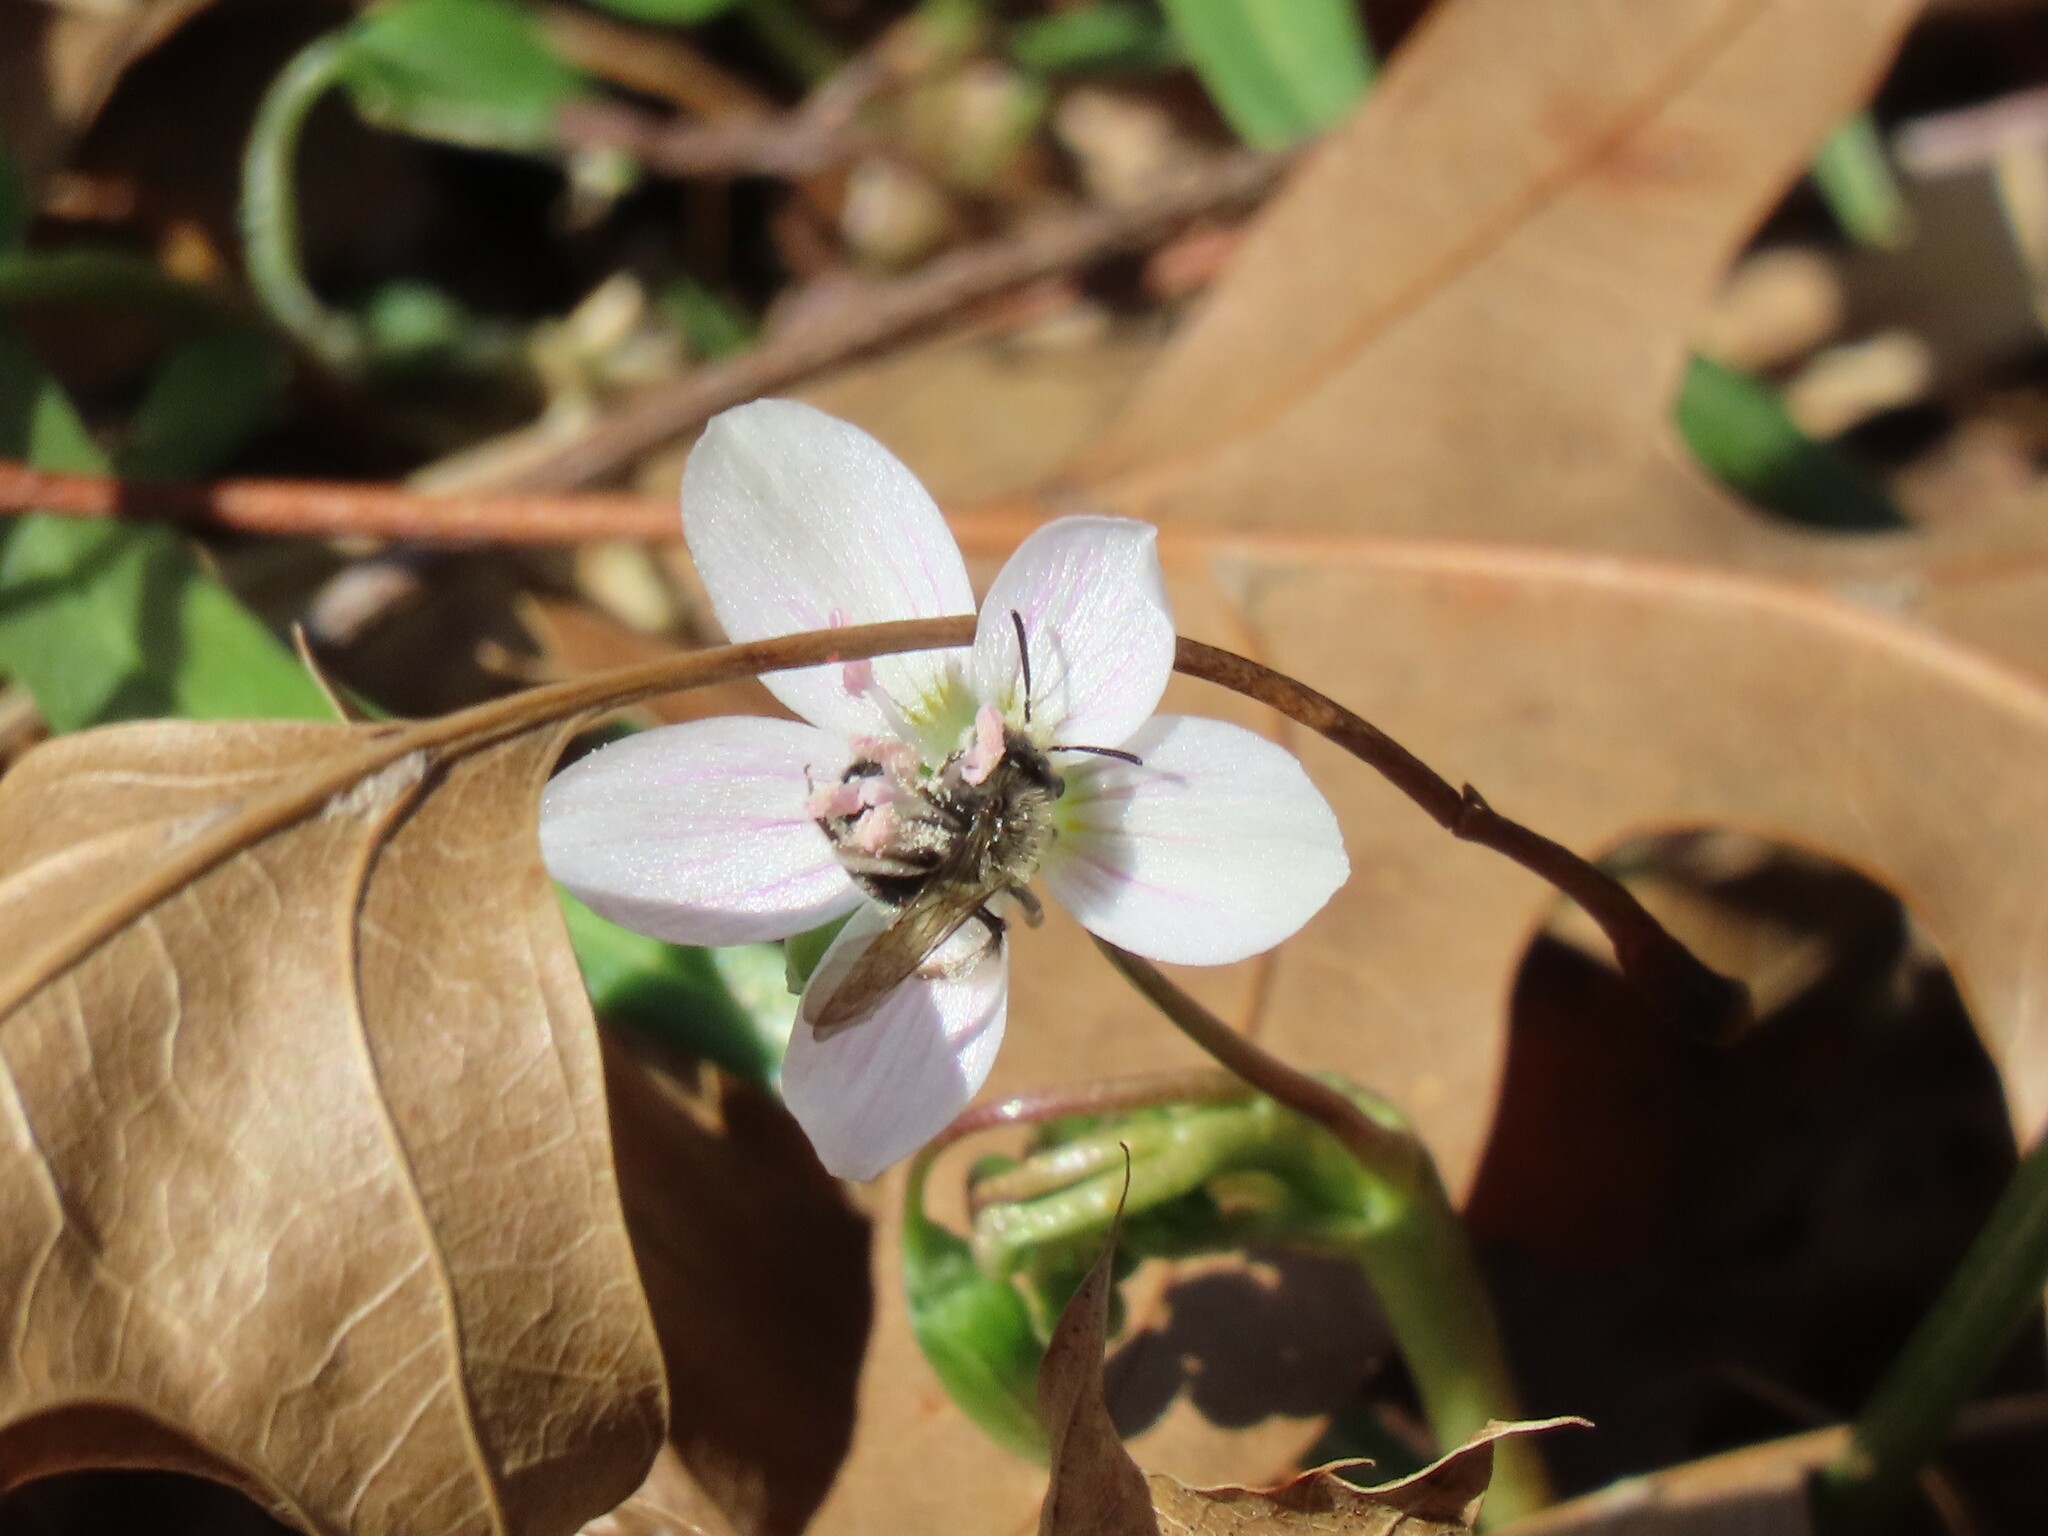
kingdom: Animalia
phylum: Arthropoda
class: Insecta
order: Hymenoptera
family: Andrenidae
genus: Andrena
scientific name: Andrena erigeniae
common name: Spring beauty miner
